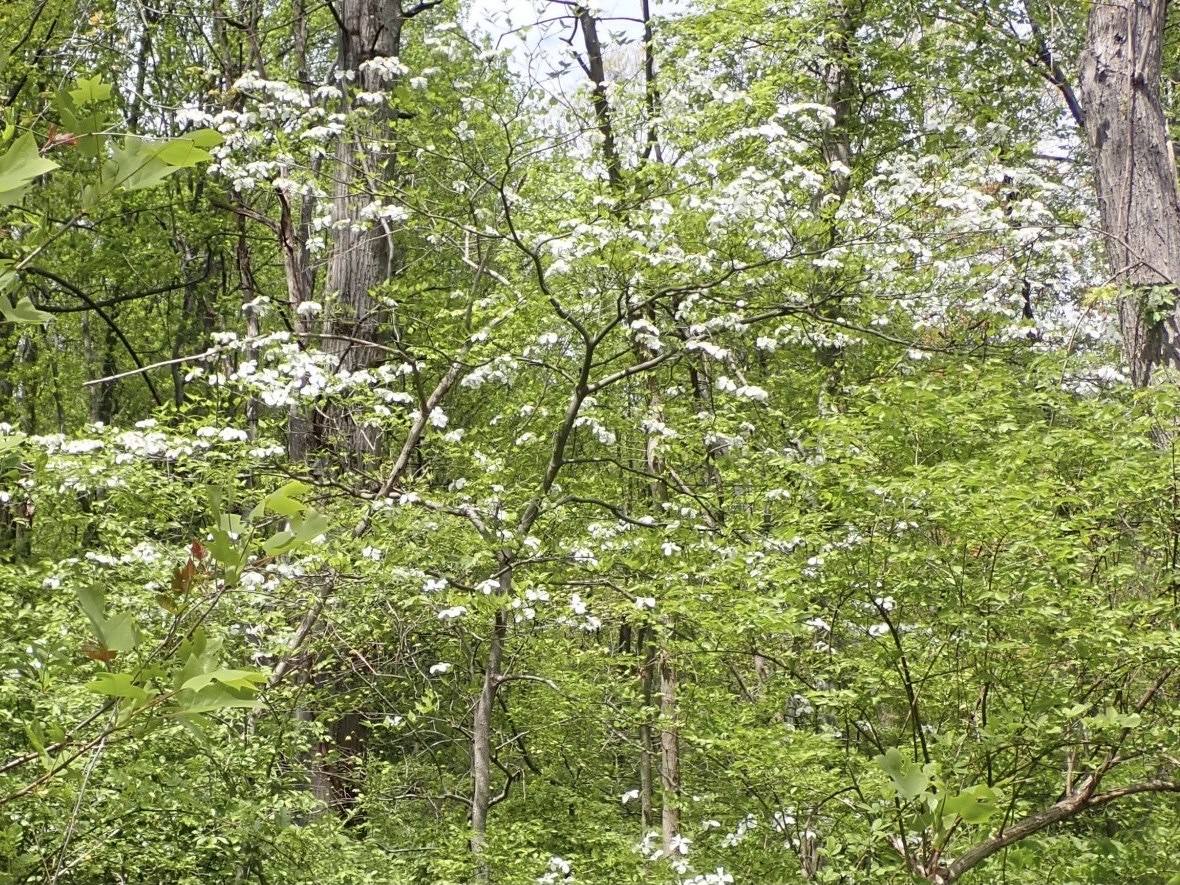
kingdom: Plantae
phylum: Tracheophyta
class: Magnoliopsida
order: Cornales
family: Cornaceae
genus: Cornus
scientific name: Cornus florida
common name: Flowering dogwood
